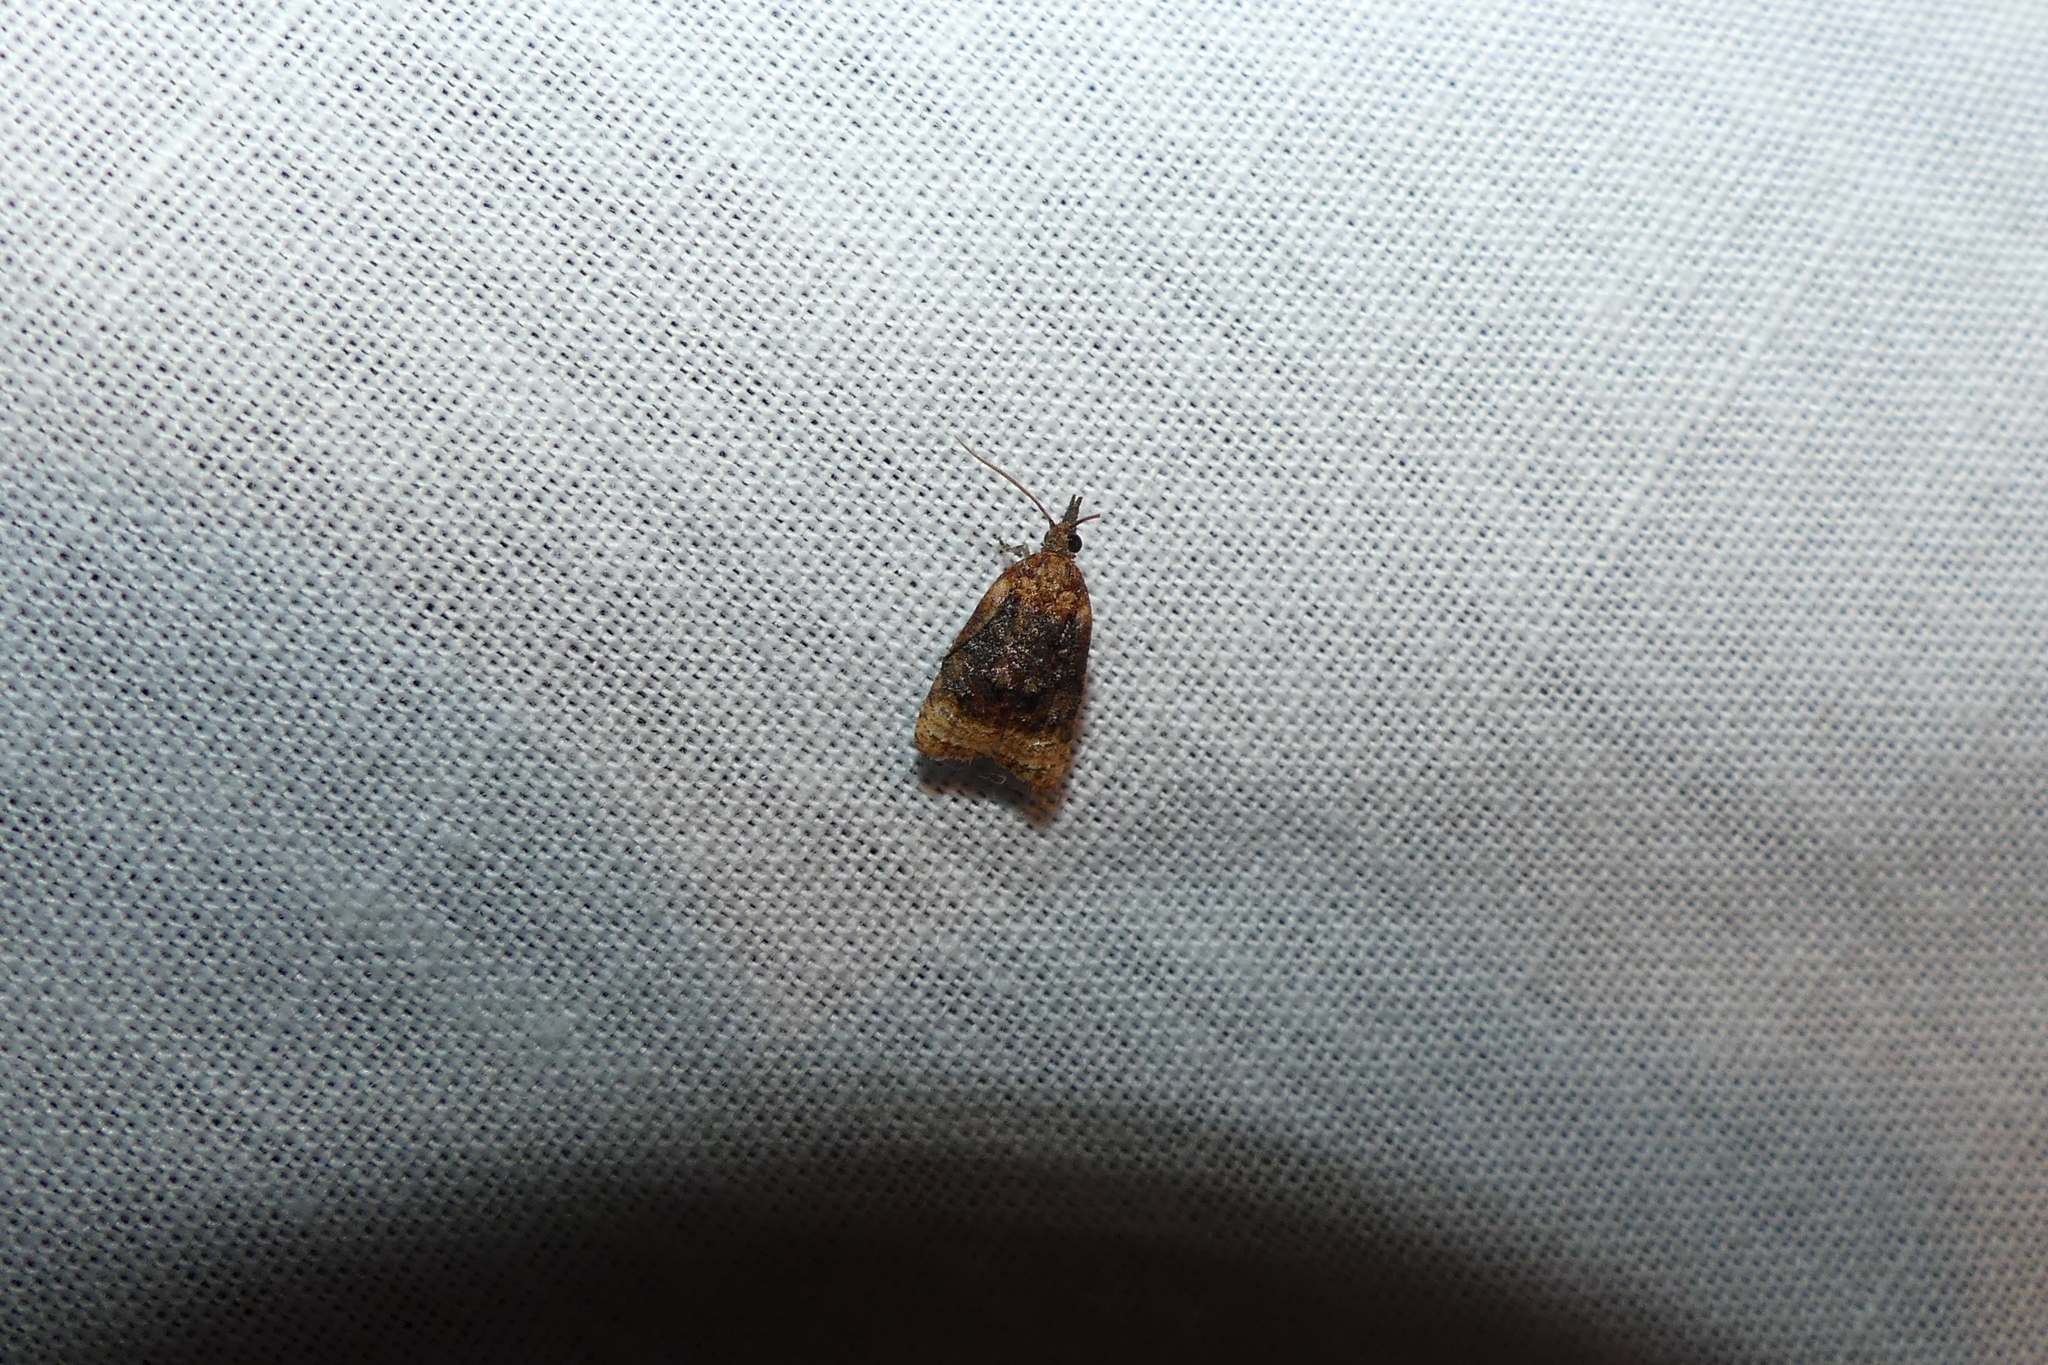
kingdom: Animalia
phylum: Arthropoda
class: Insecta
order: Lepidoptera
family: Tortricidae
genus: Platynota
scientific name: Platynota flavedana
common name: Black-shaded platynota moth
